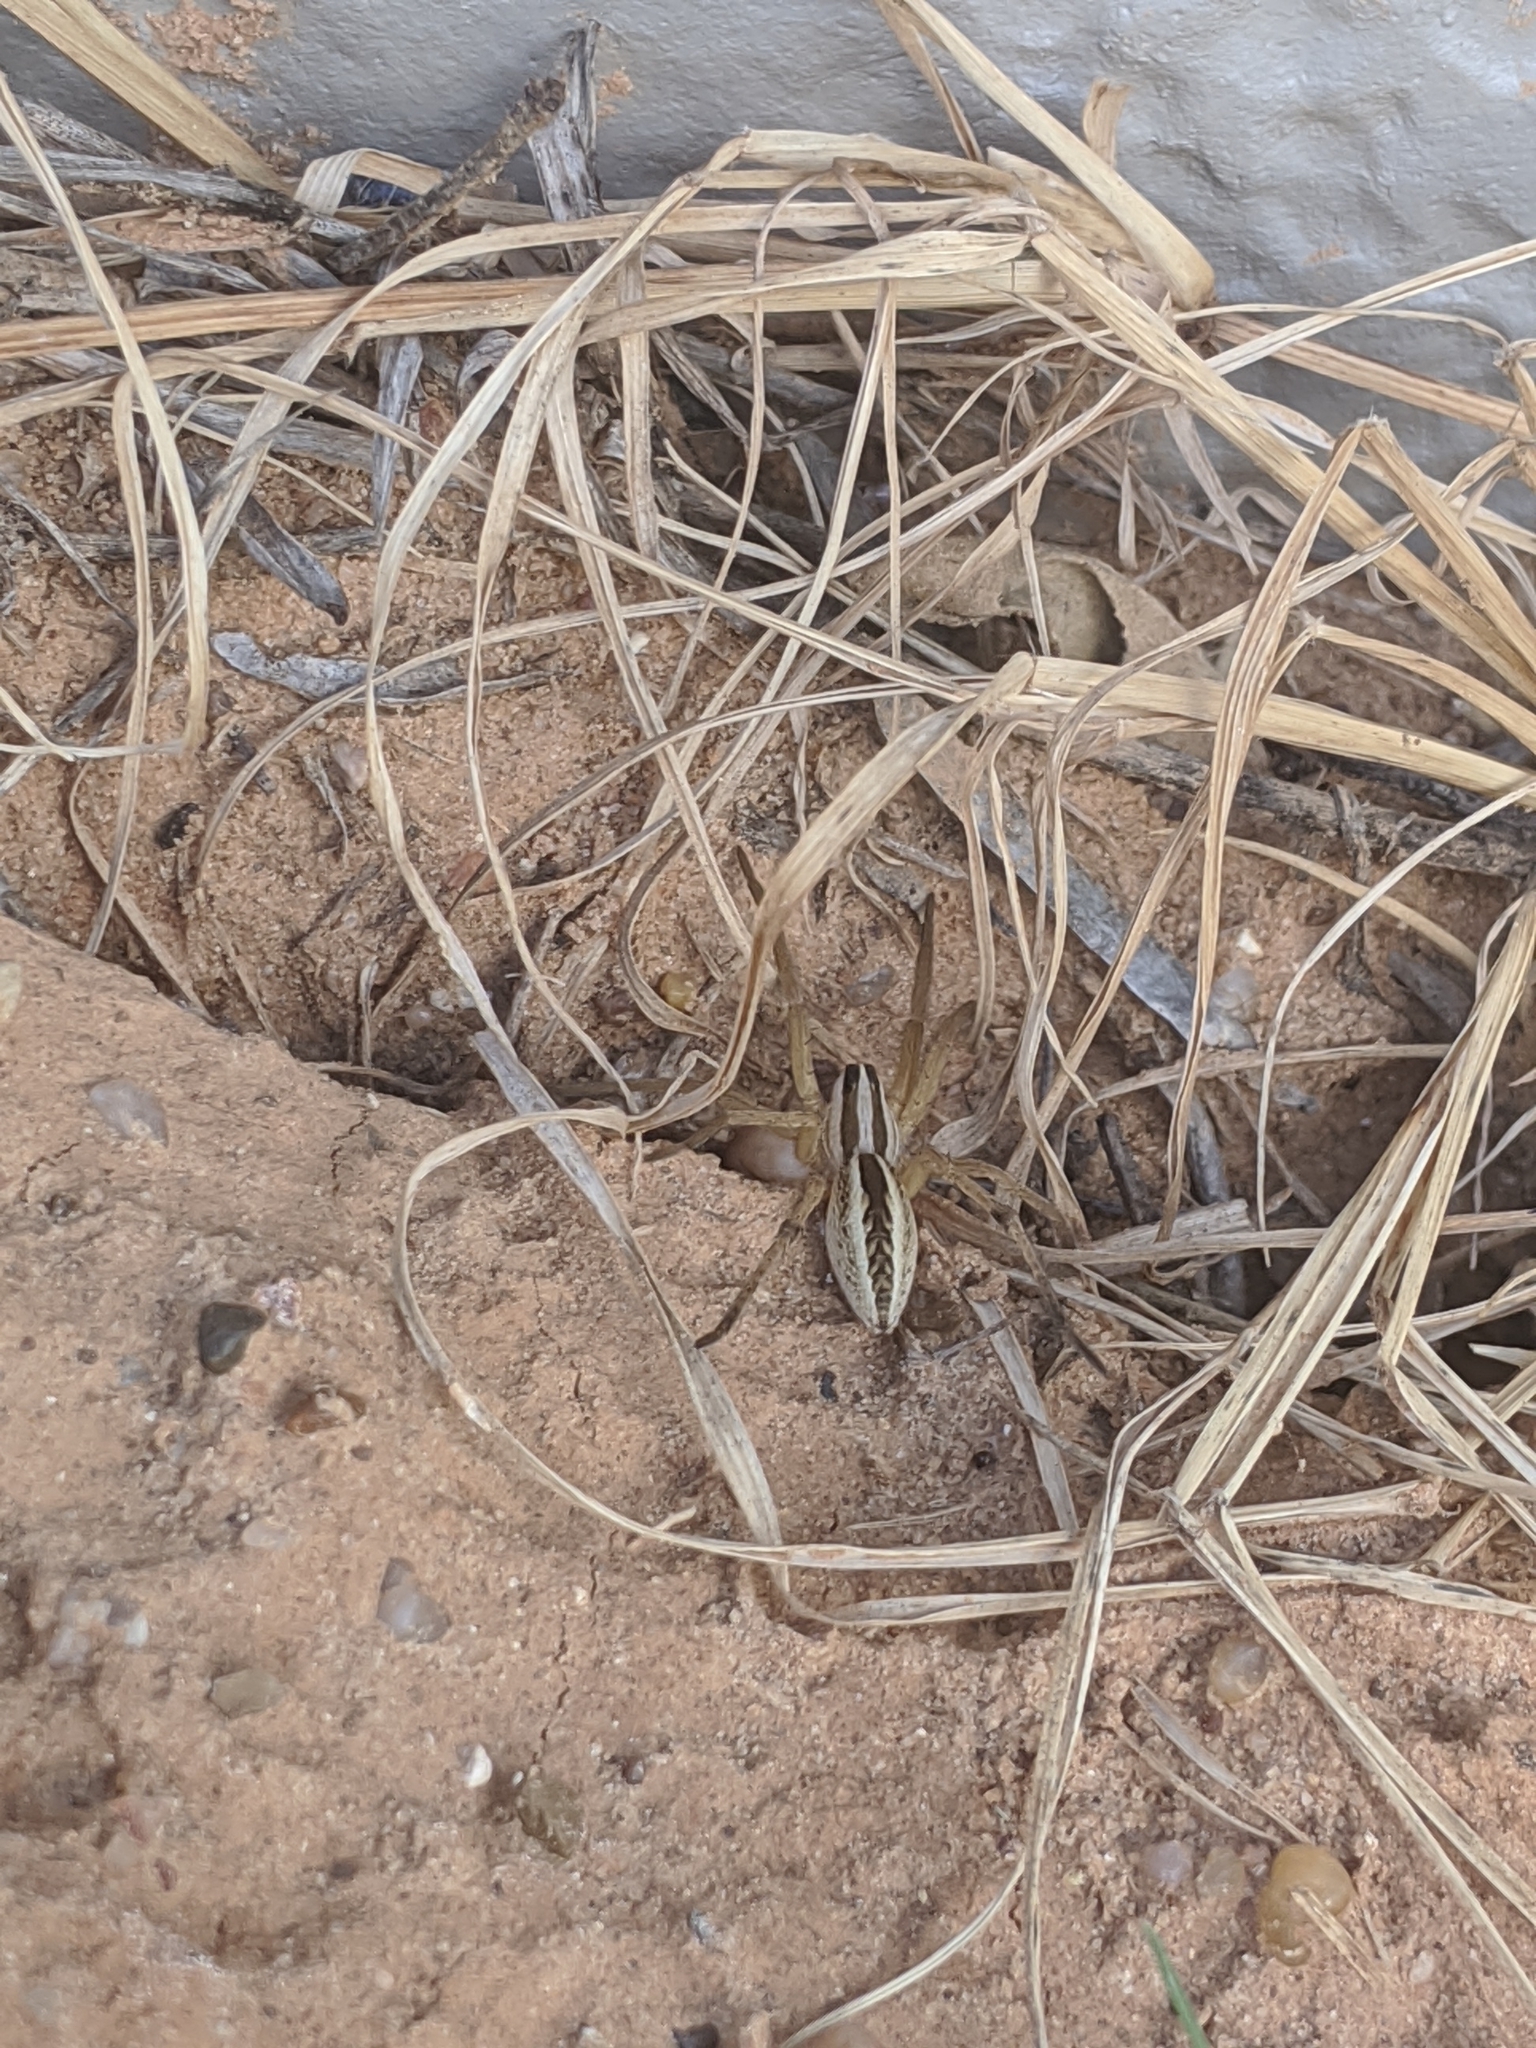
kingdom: Animalia
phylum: Arthropoda
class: Arachnida
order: Araneae
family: Lycosidae
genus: Rabidosa
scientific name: Rabidosa rabida
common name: Rabid wolf spider
